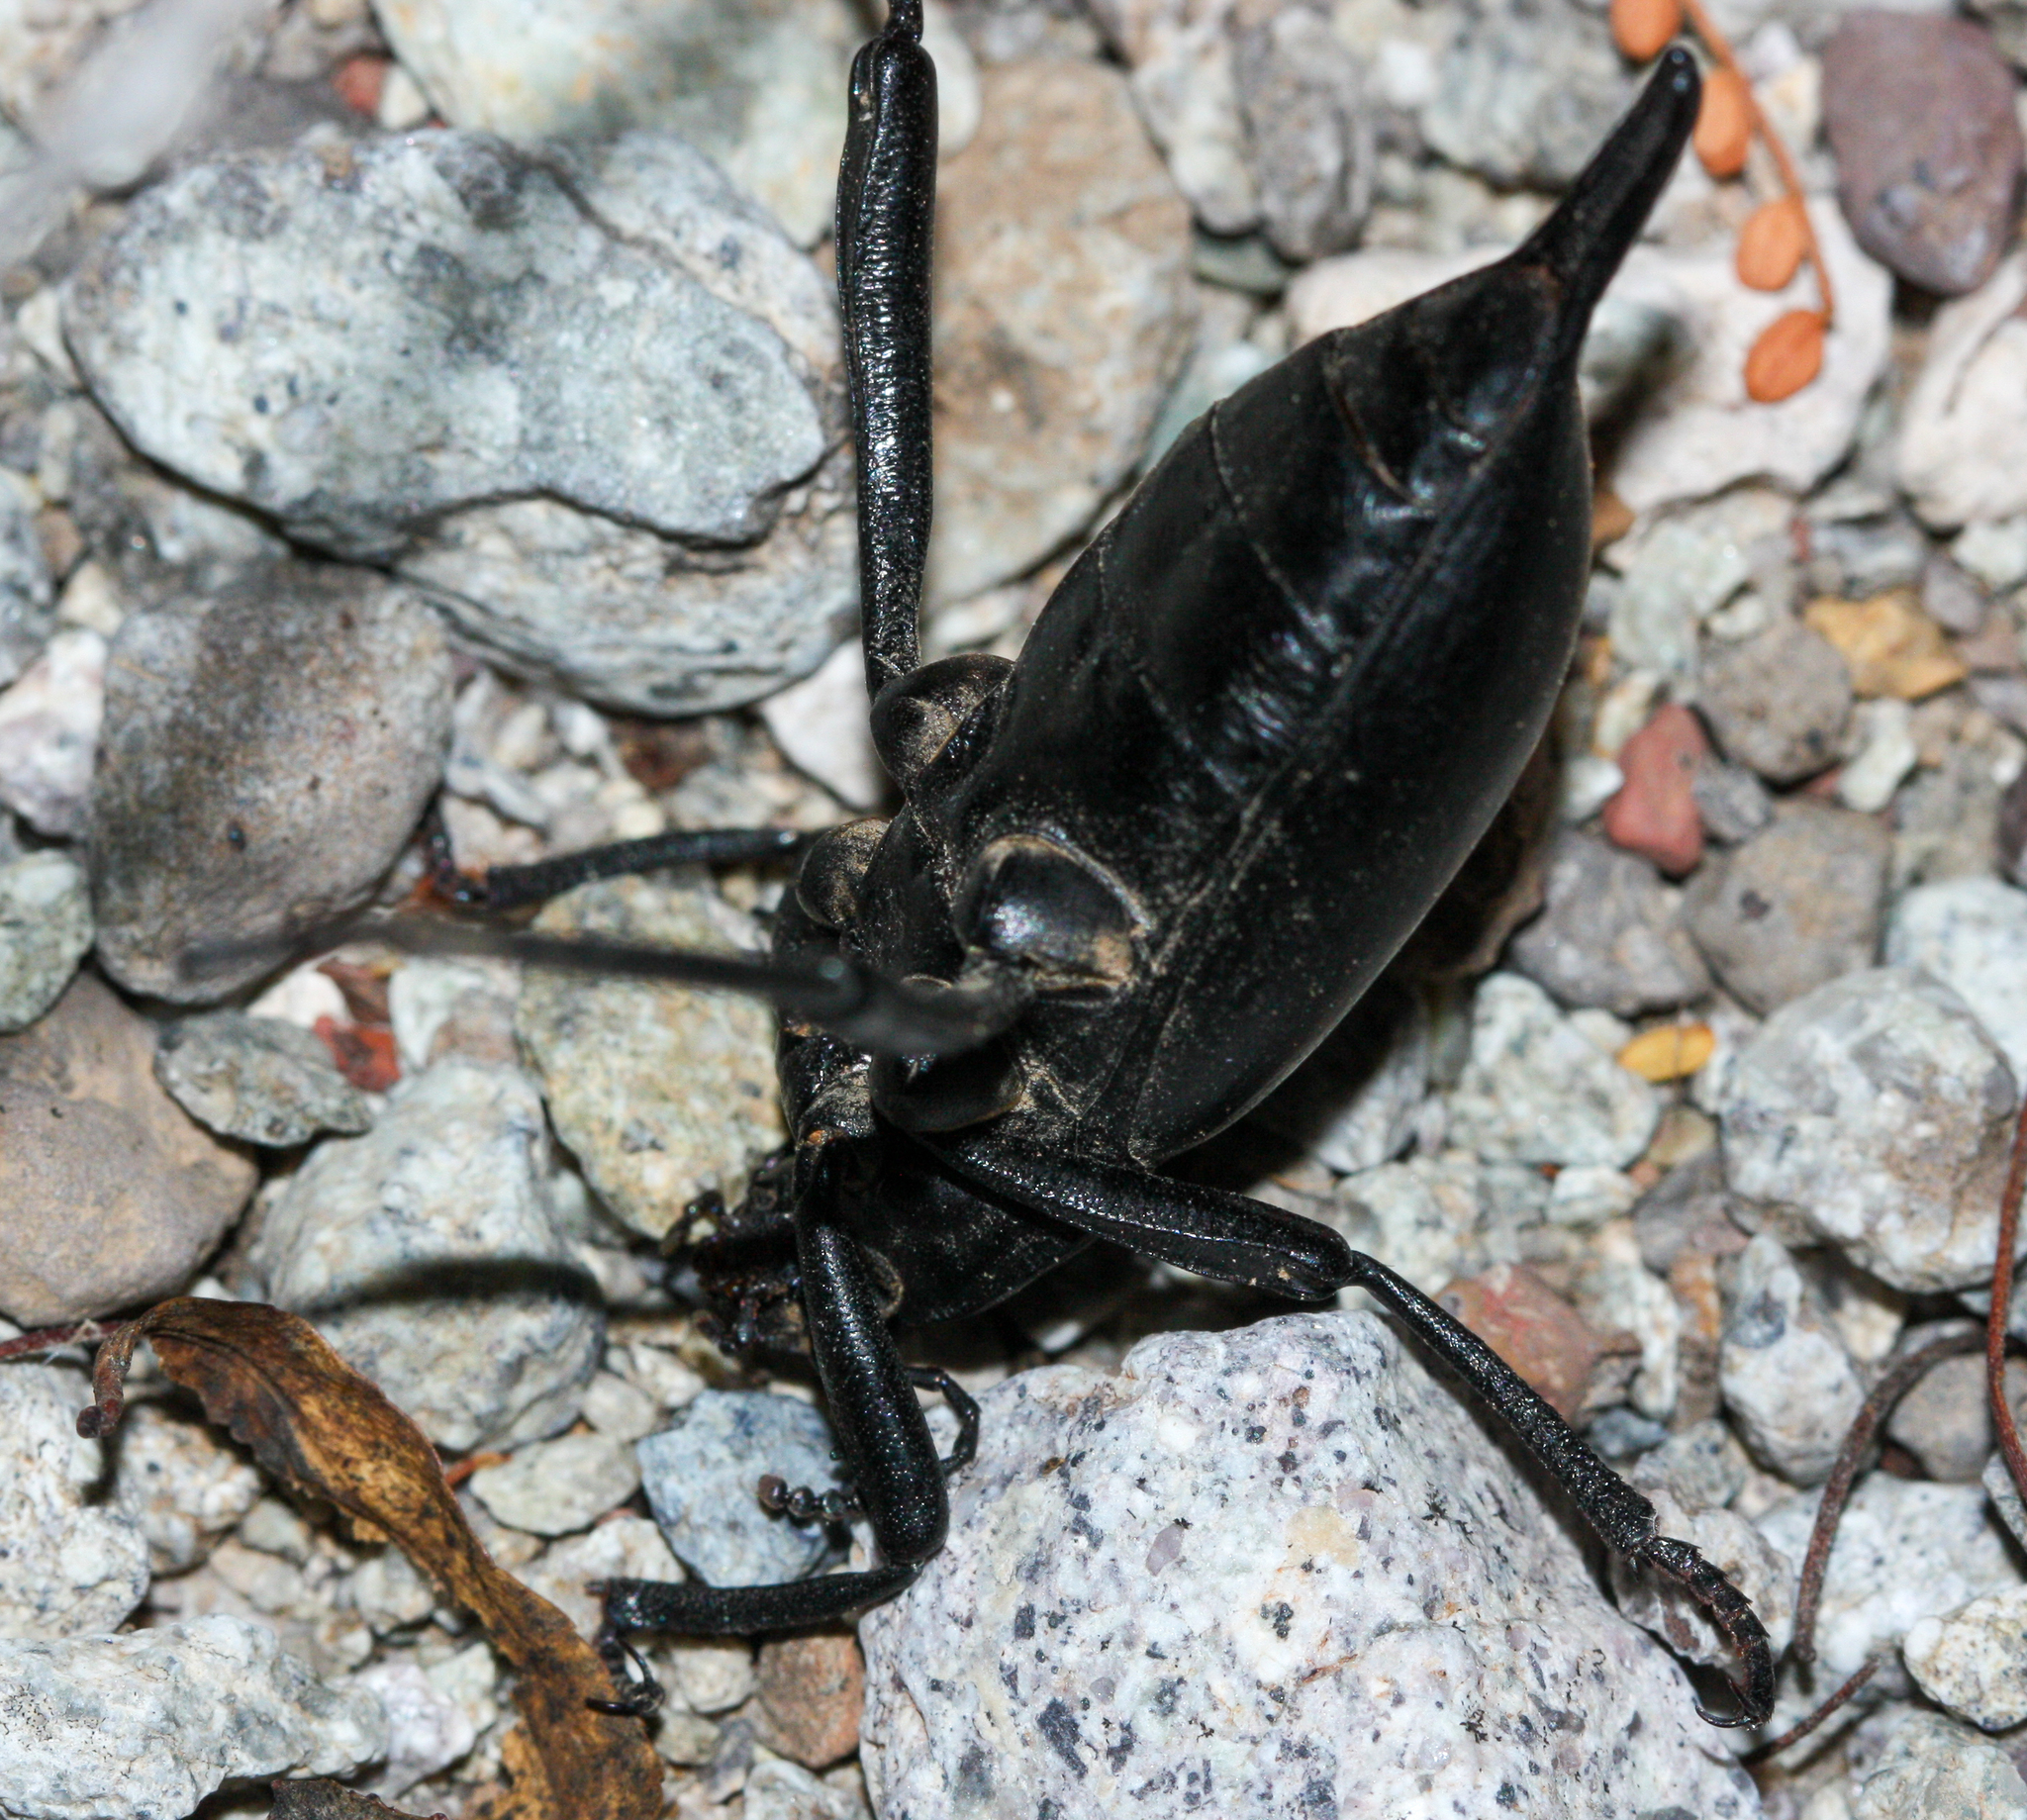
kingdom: Animalia
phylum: Arthropoda
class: Insecta
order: Coleoptera
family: Tenebrionidae
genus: Eleodes
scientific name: Eleodes eschscholtzii
